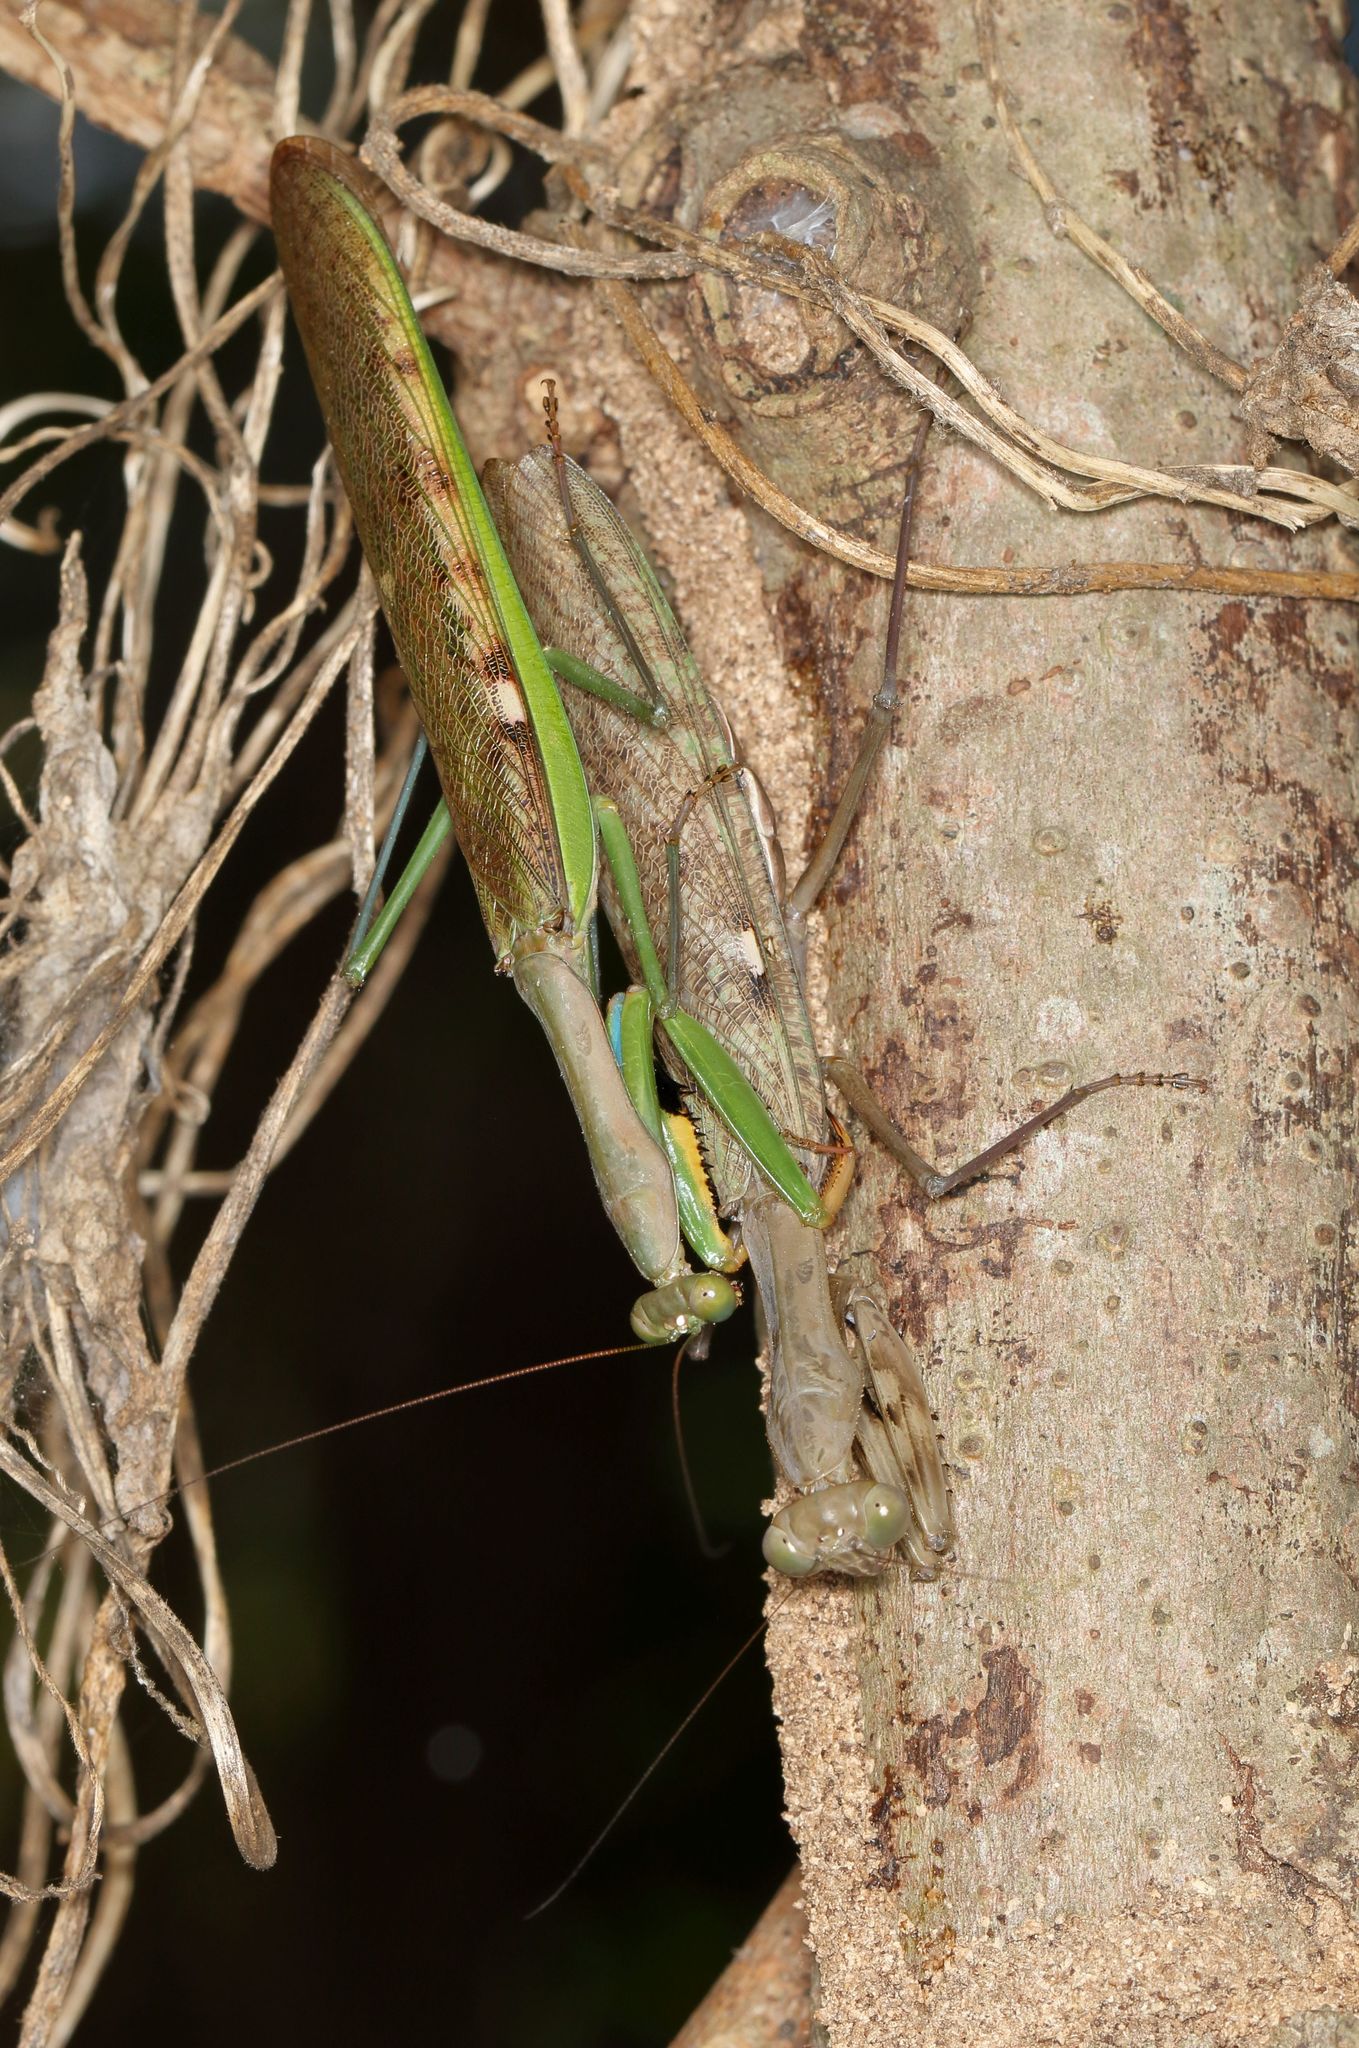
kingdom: Animalia
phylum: Arthropoda
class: Insecta
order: Mantodea
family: Mantidae
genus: Polyspilota
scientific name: Polyspilota aeruginosa
